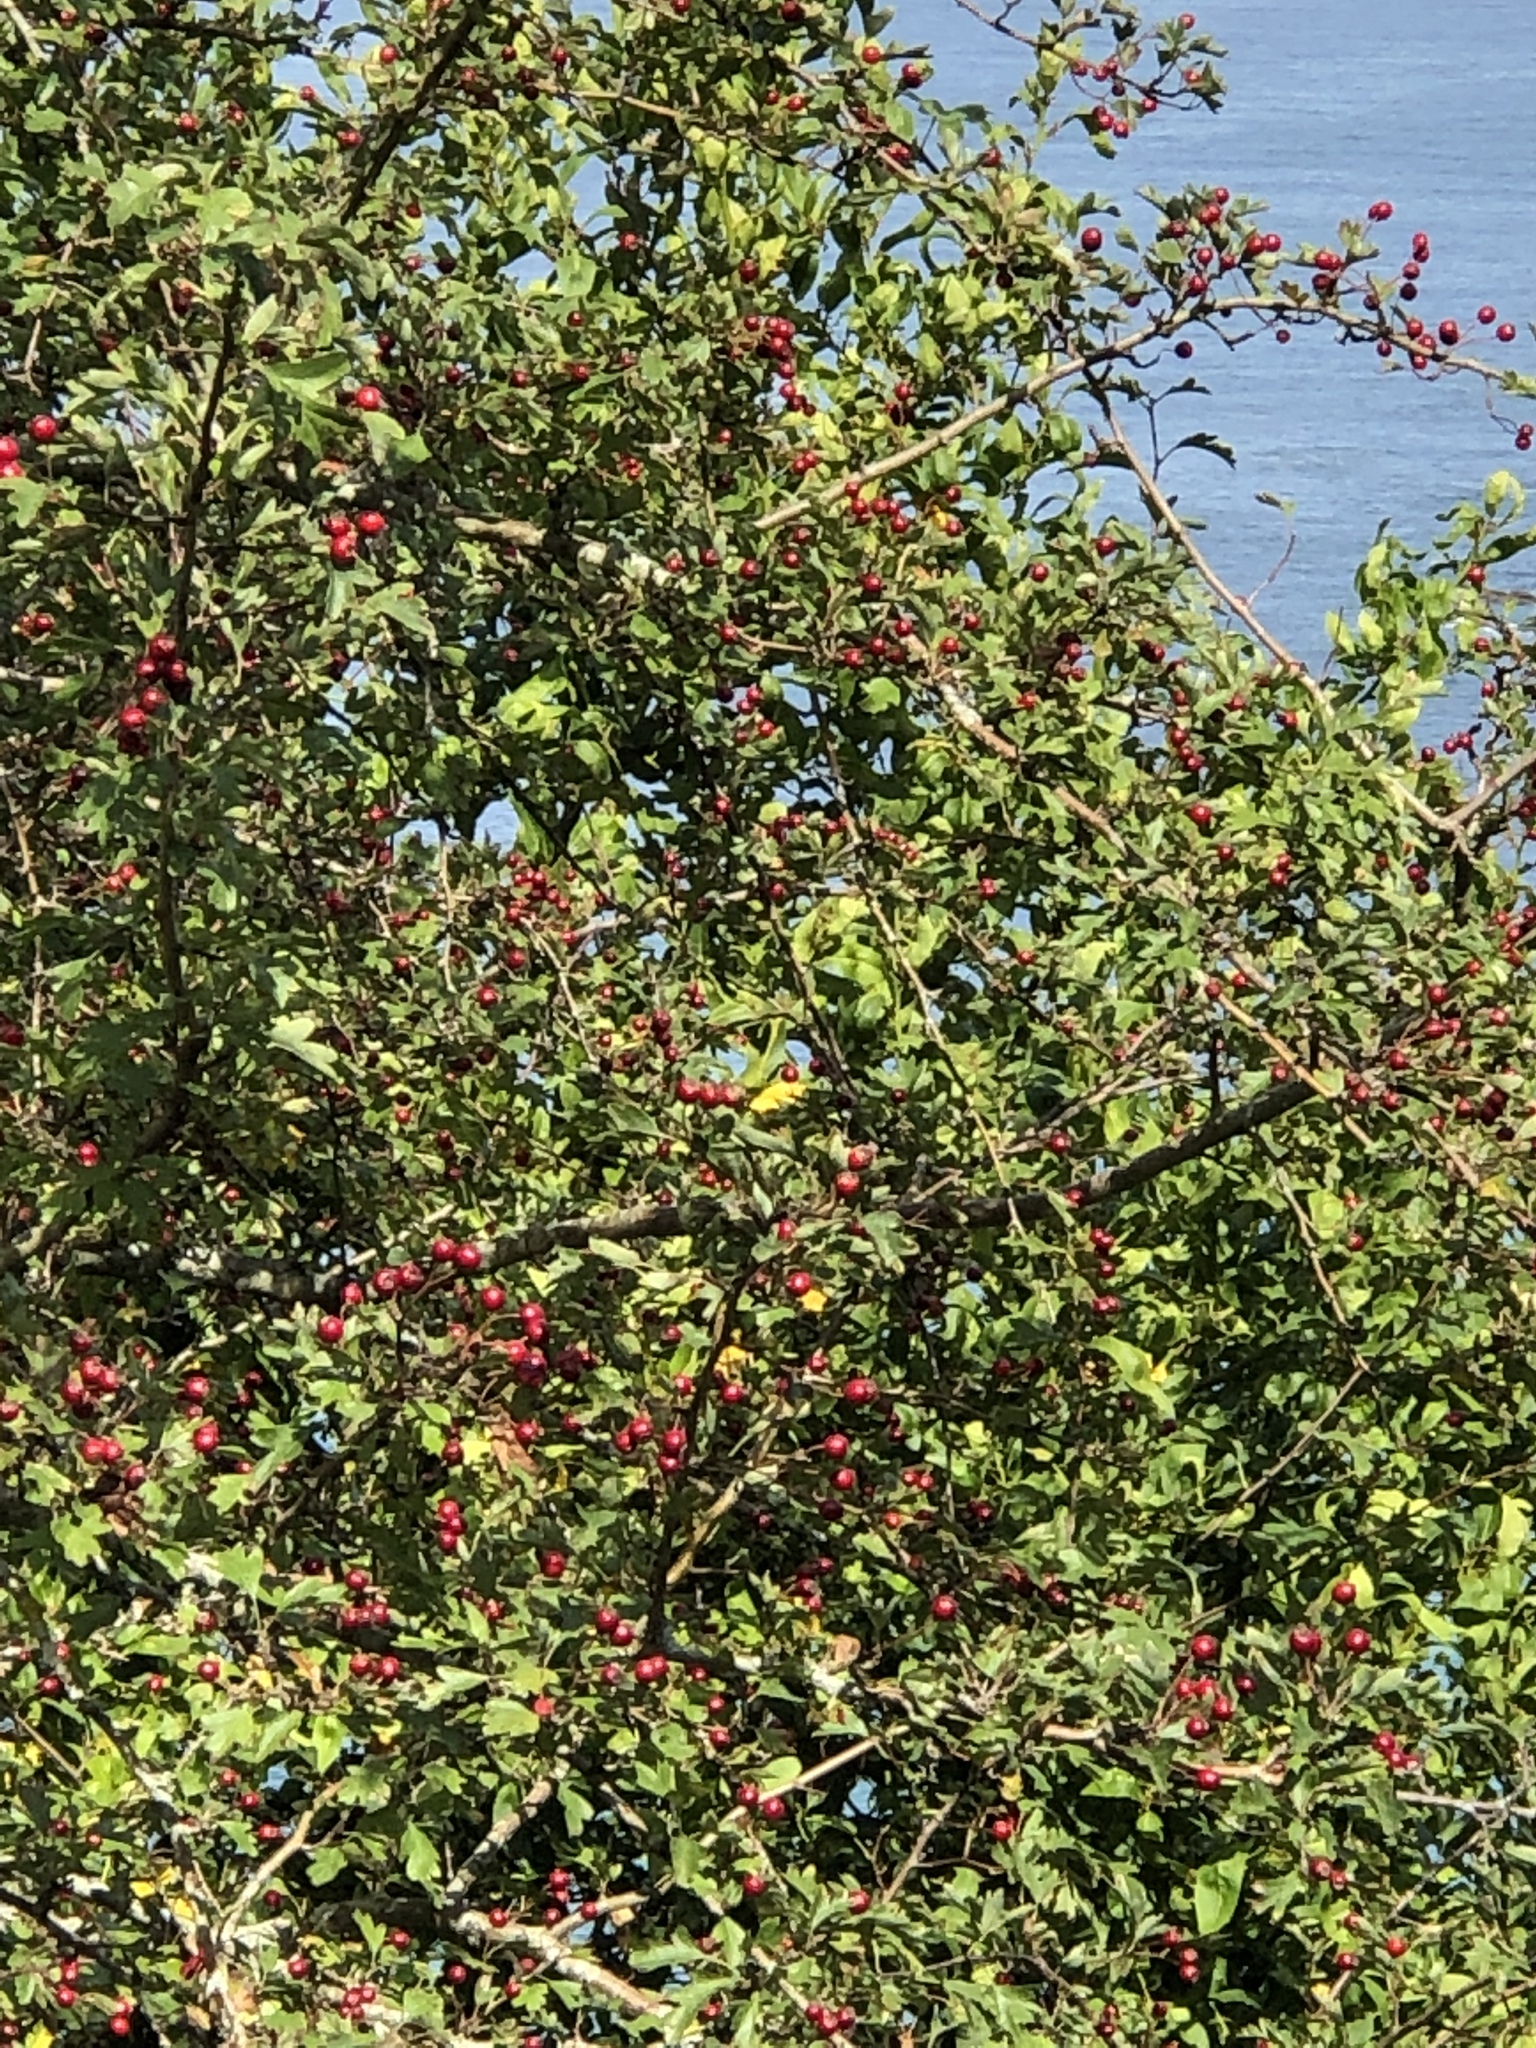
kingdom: Plantae
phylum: Tracheophyta
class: Magnoliopsida
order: Rosales
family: Rosaceae
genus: Crataegus
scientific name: Crataegus monogyna
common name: Hawthorn
